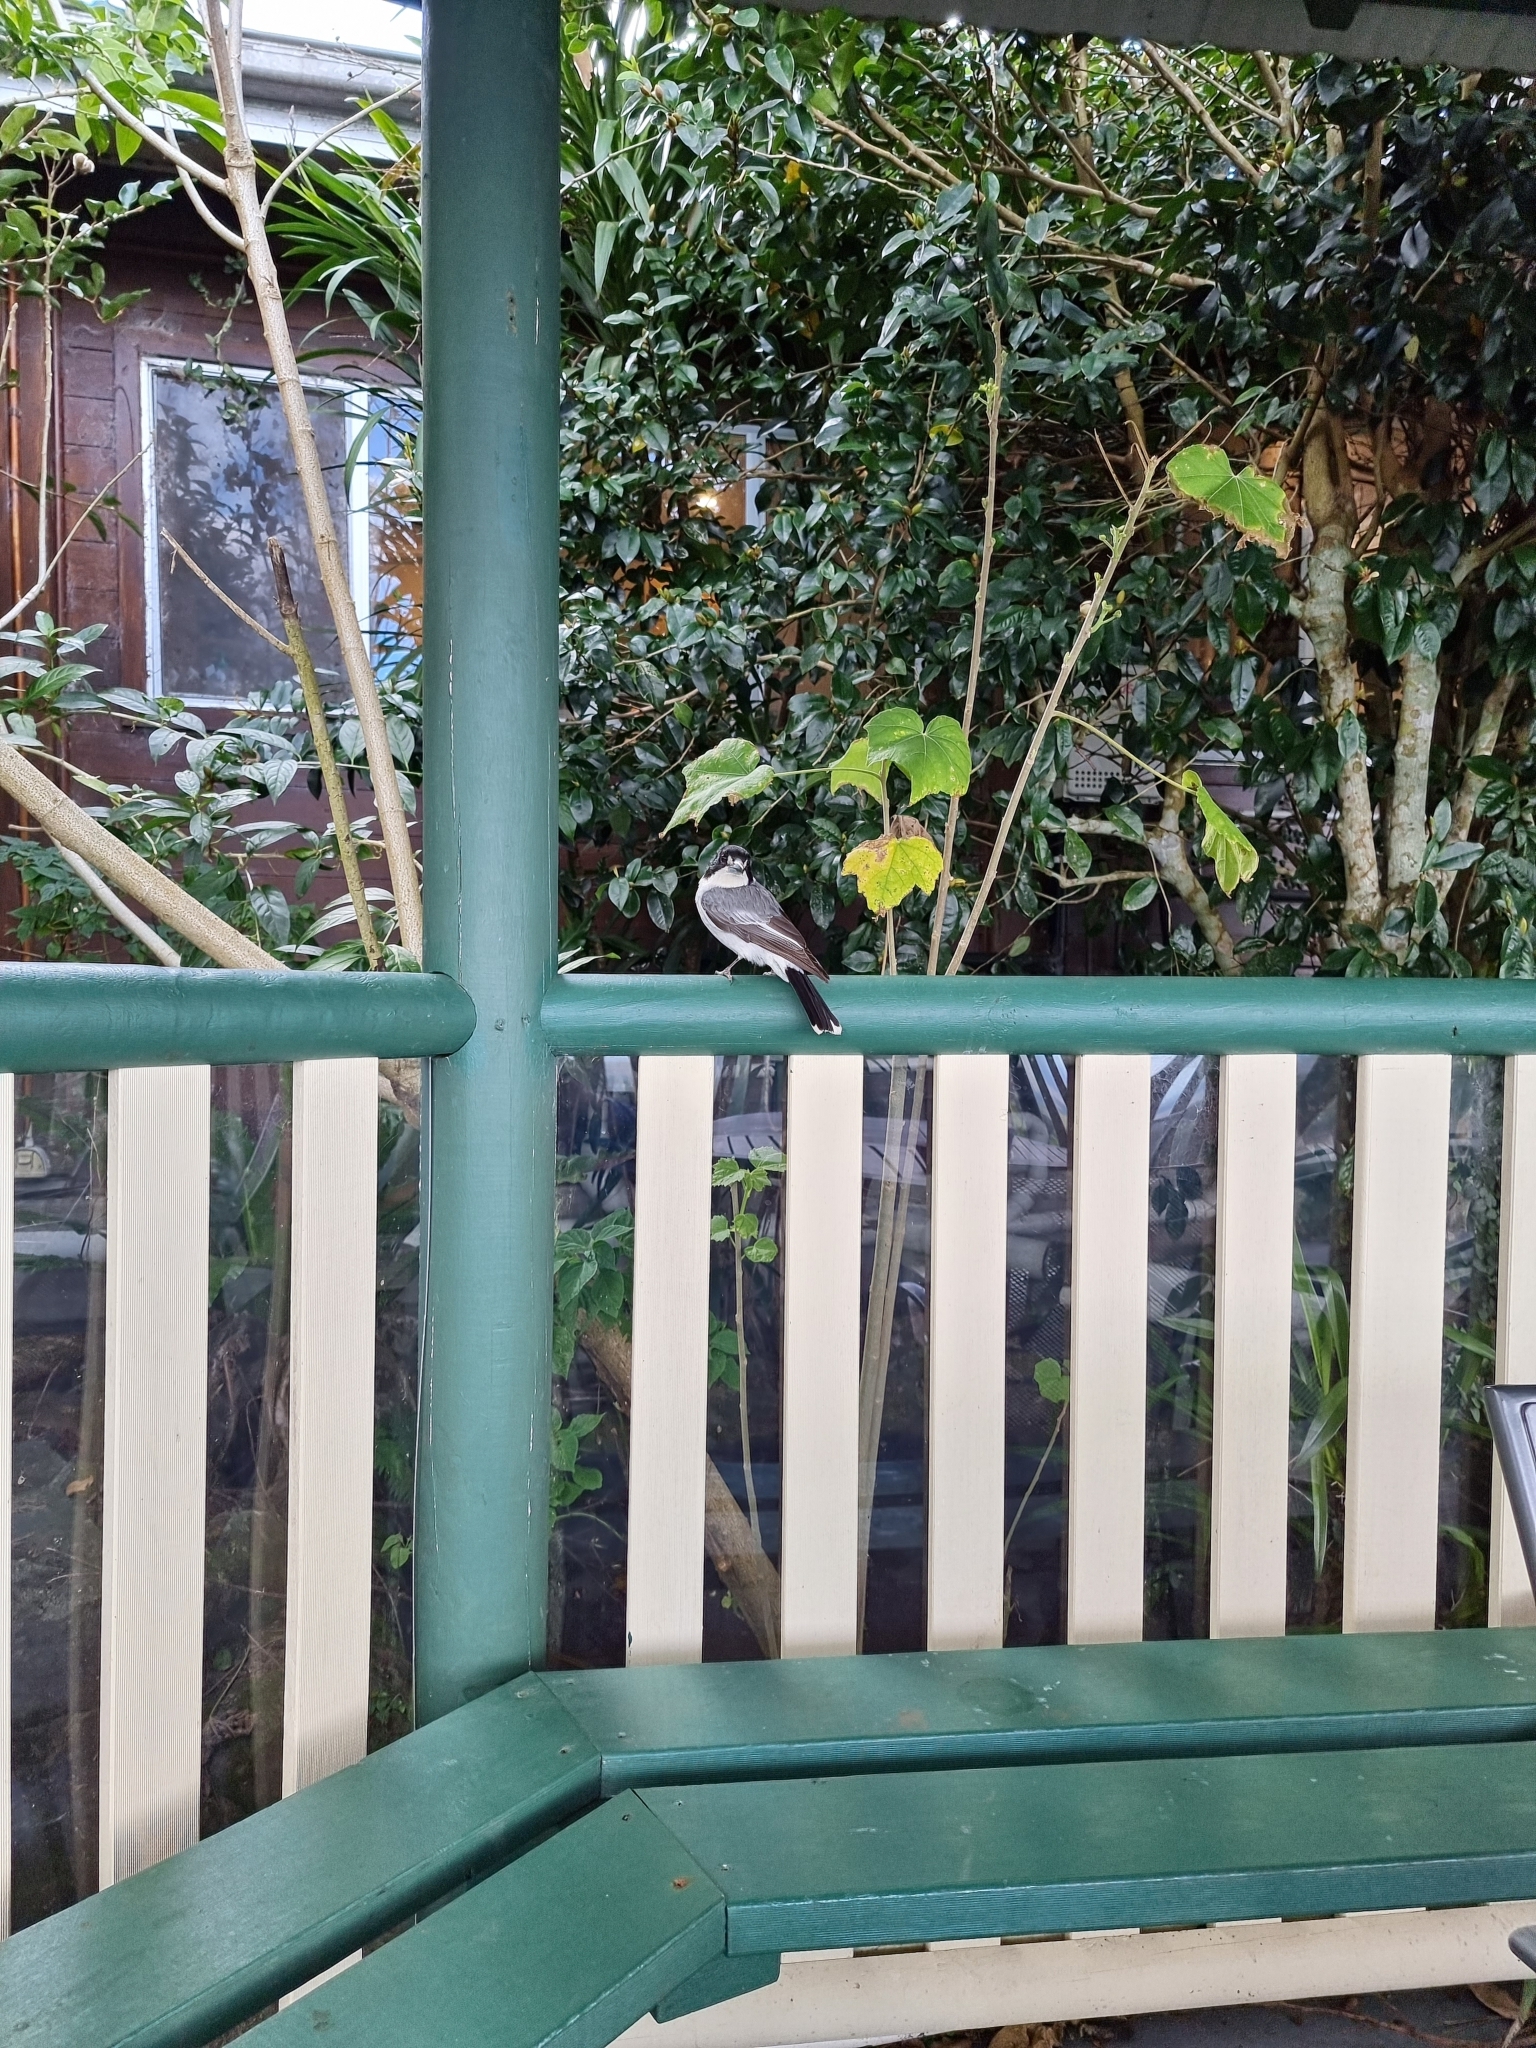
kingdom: Animalia
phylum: Chordata
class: Aves
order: Passeriformes
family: Cracticidae
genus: Cracticus
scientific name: Cracticus torquatus
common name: Grey butcherbird
